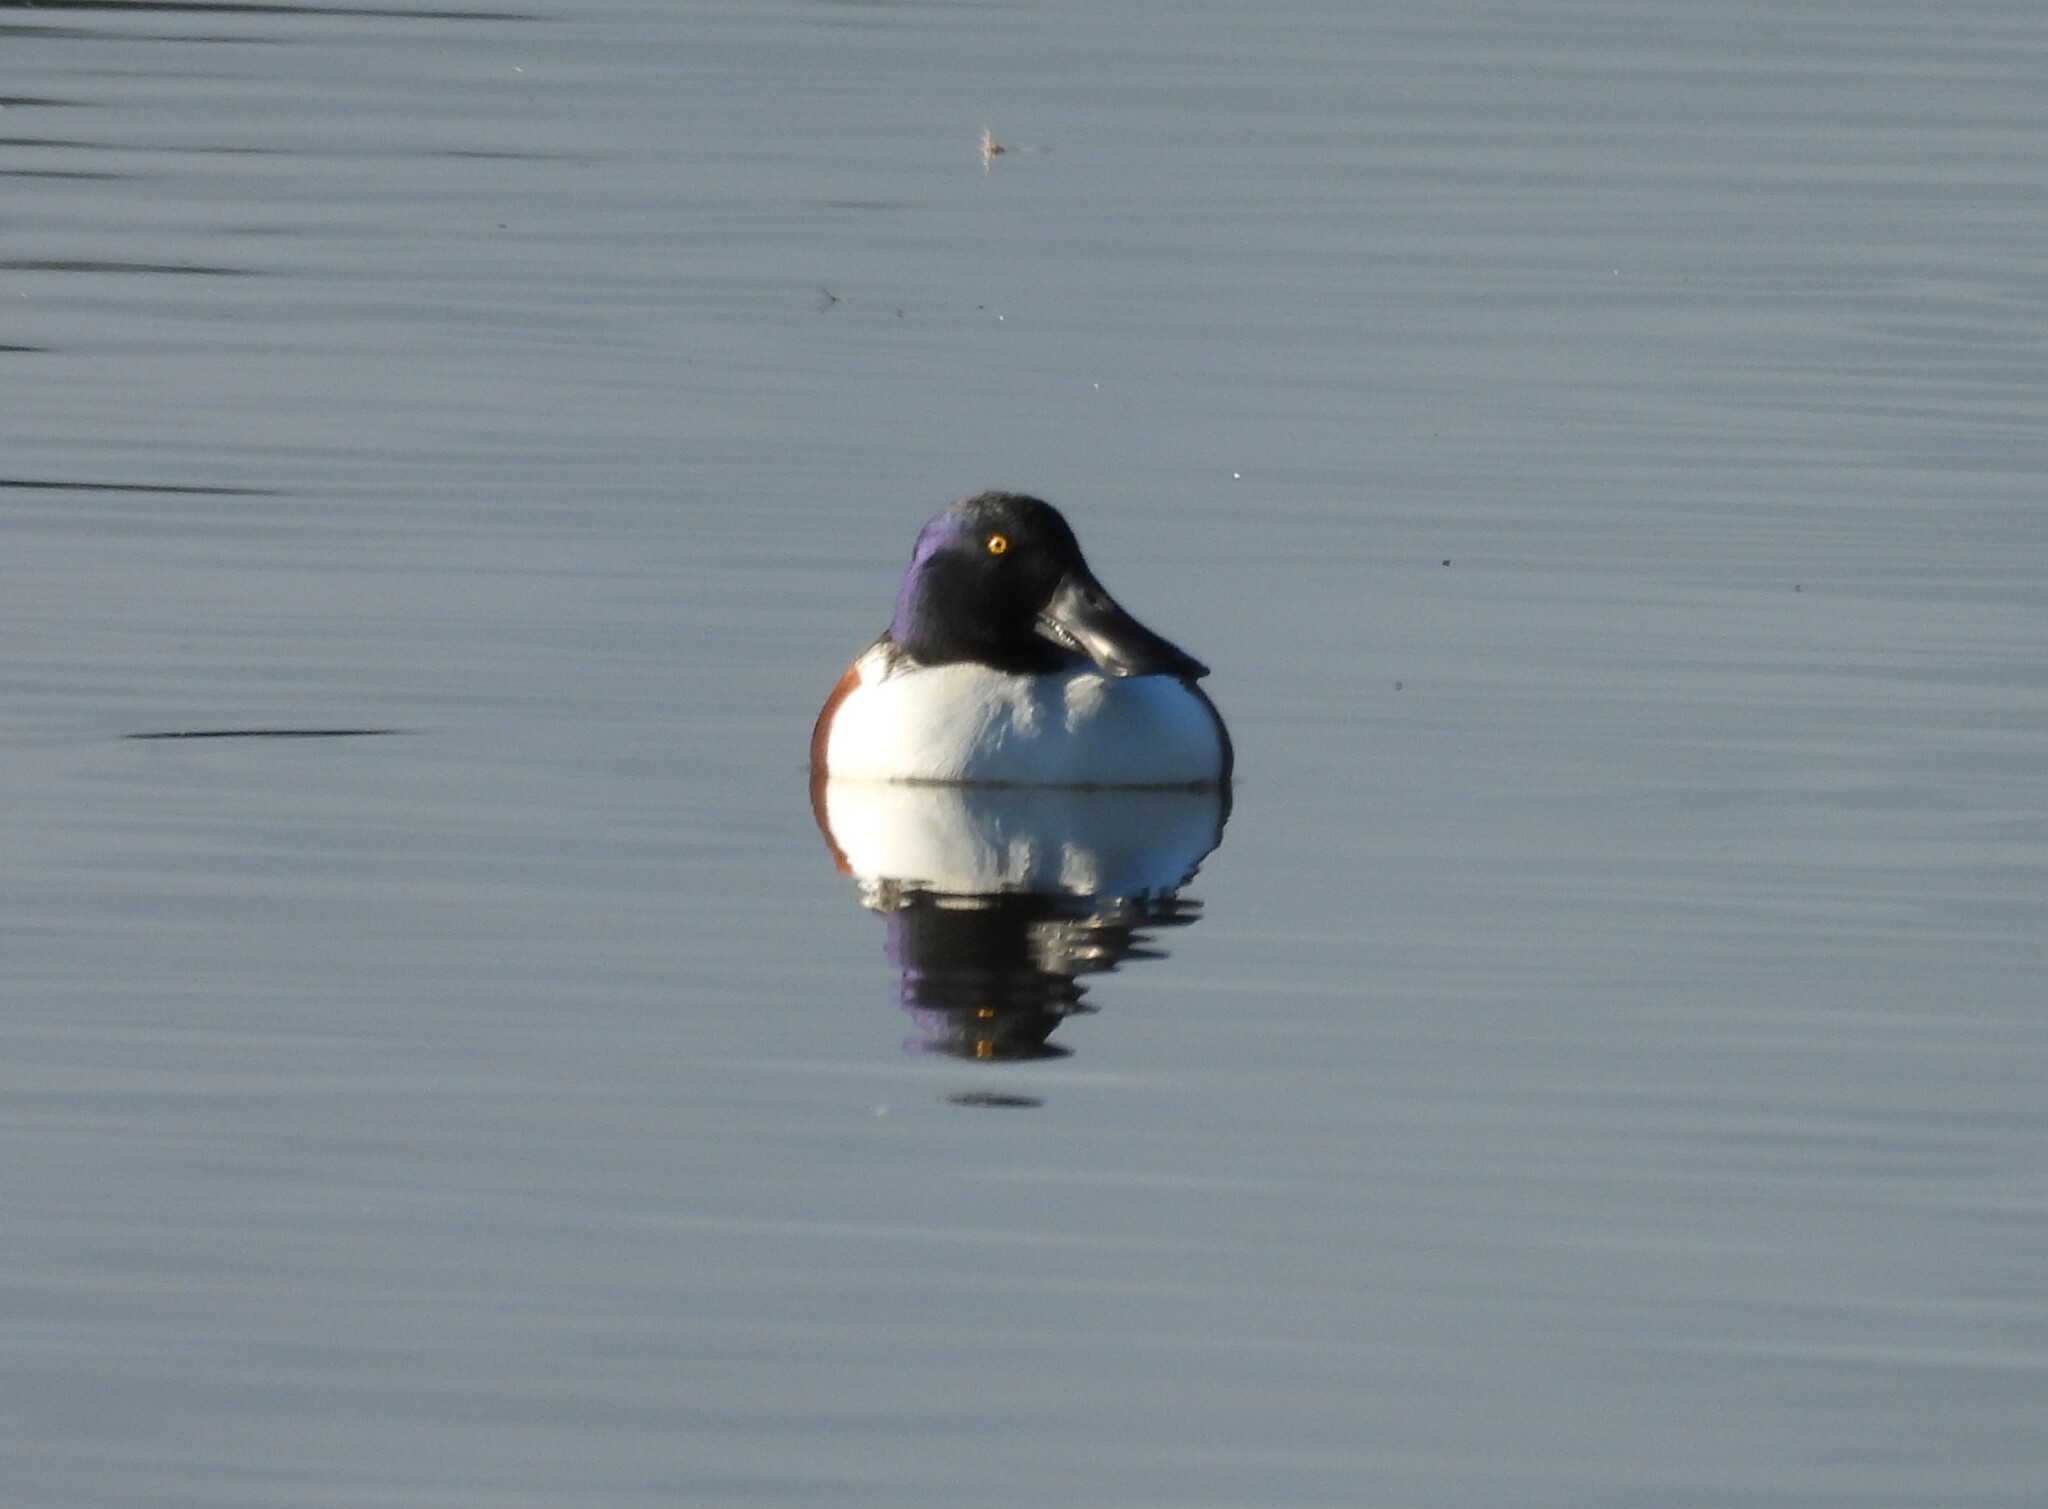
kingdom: Animalia
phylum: Chordata
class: Aves
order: Anseriformes
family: Anatidae
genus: Spatula
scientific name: Spatula clypeata
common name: Northern shoveler
